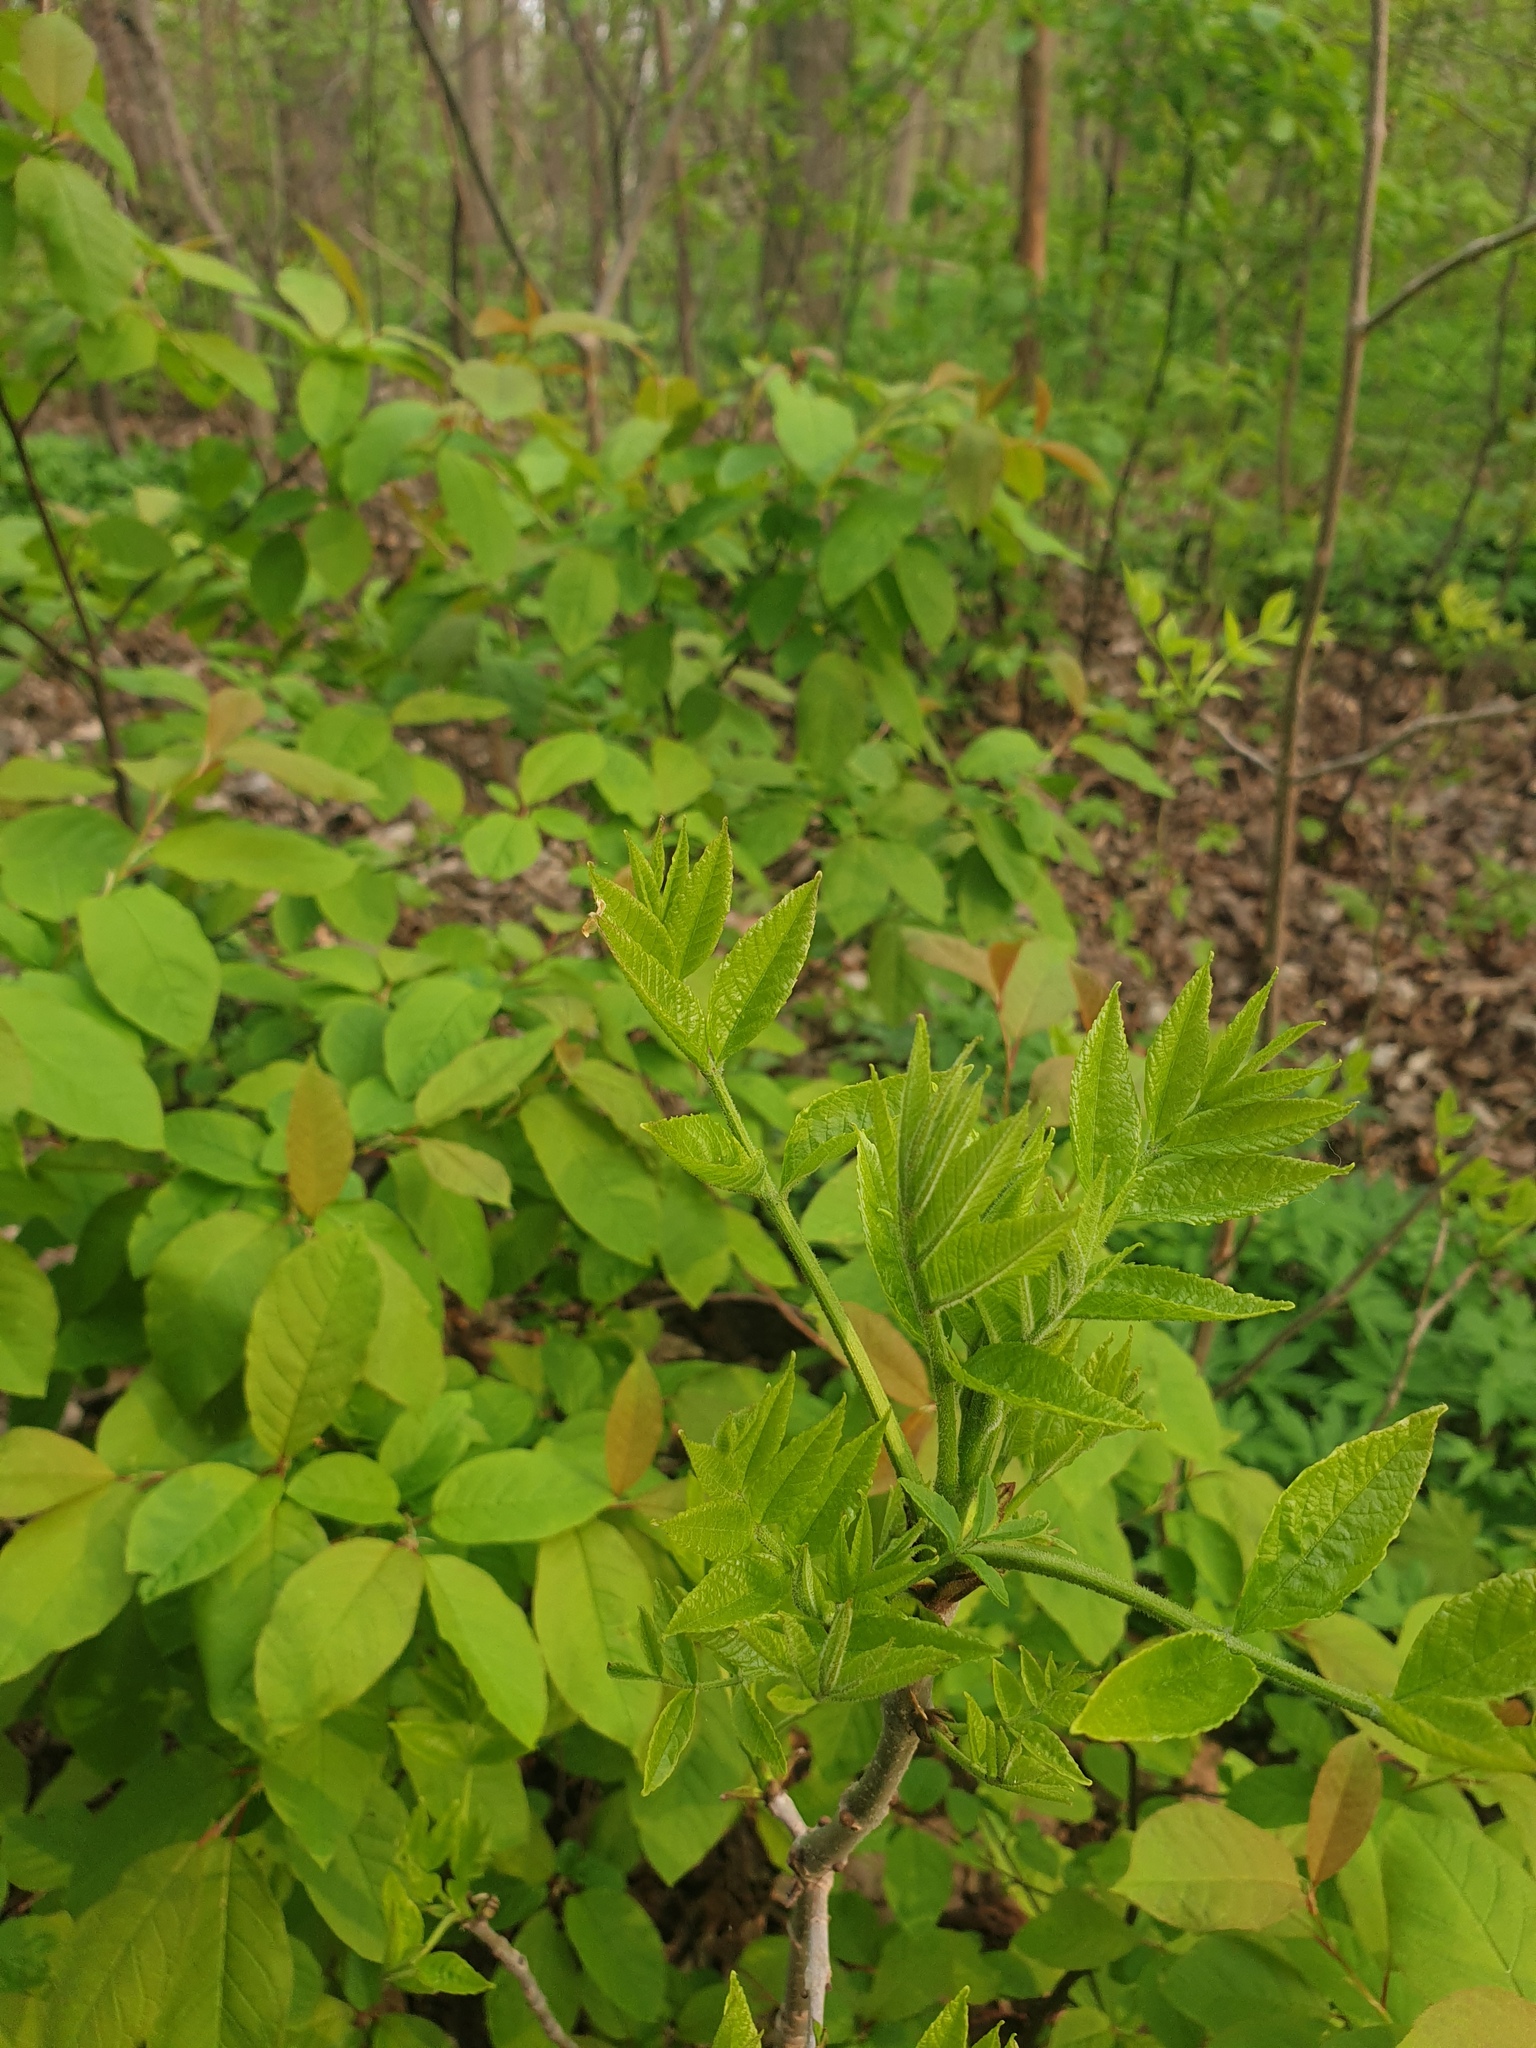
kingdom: Plantae
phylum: Tracheophyta
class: Magnoliopsida
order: Lamiales
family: Oleaceae
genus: Fraxinus
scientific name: Fraxinus pennsylvanica
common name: Green ash
